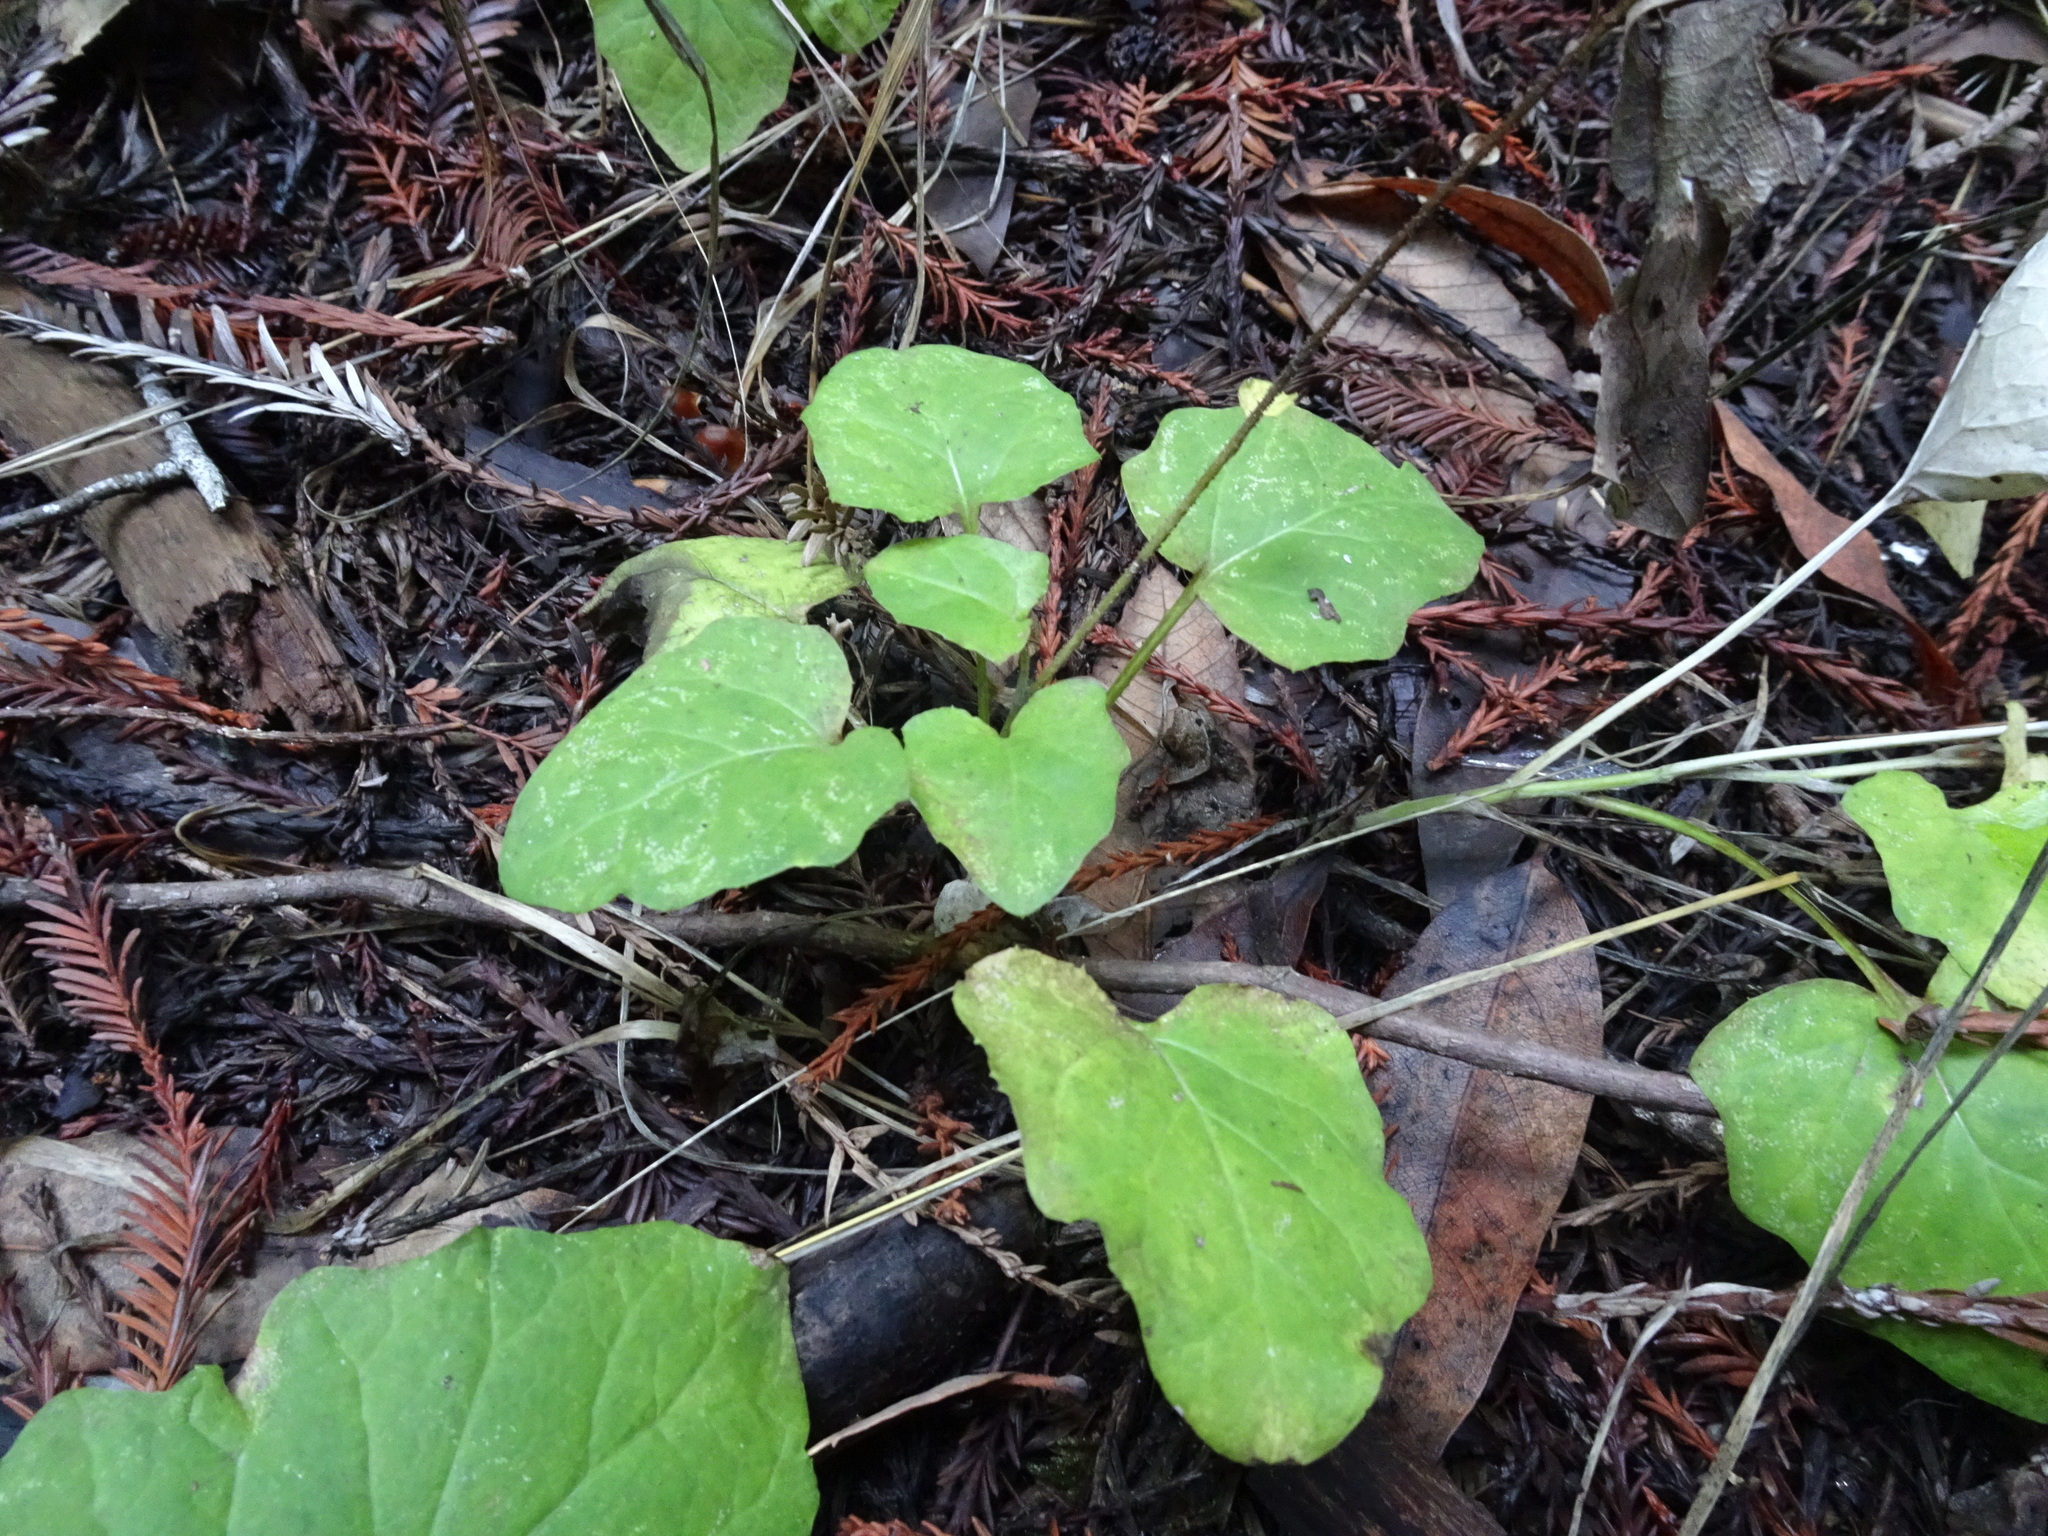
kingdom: Plantae
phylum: Tracheophyta
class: Magnoliopsida
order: Asterales
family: Asteraceae
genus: Adenocaulon
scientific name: Adenocaulon bicolor
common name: Trailplant
